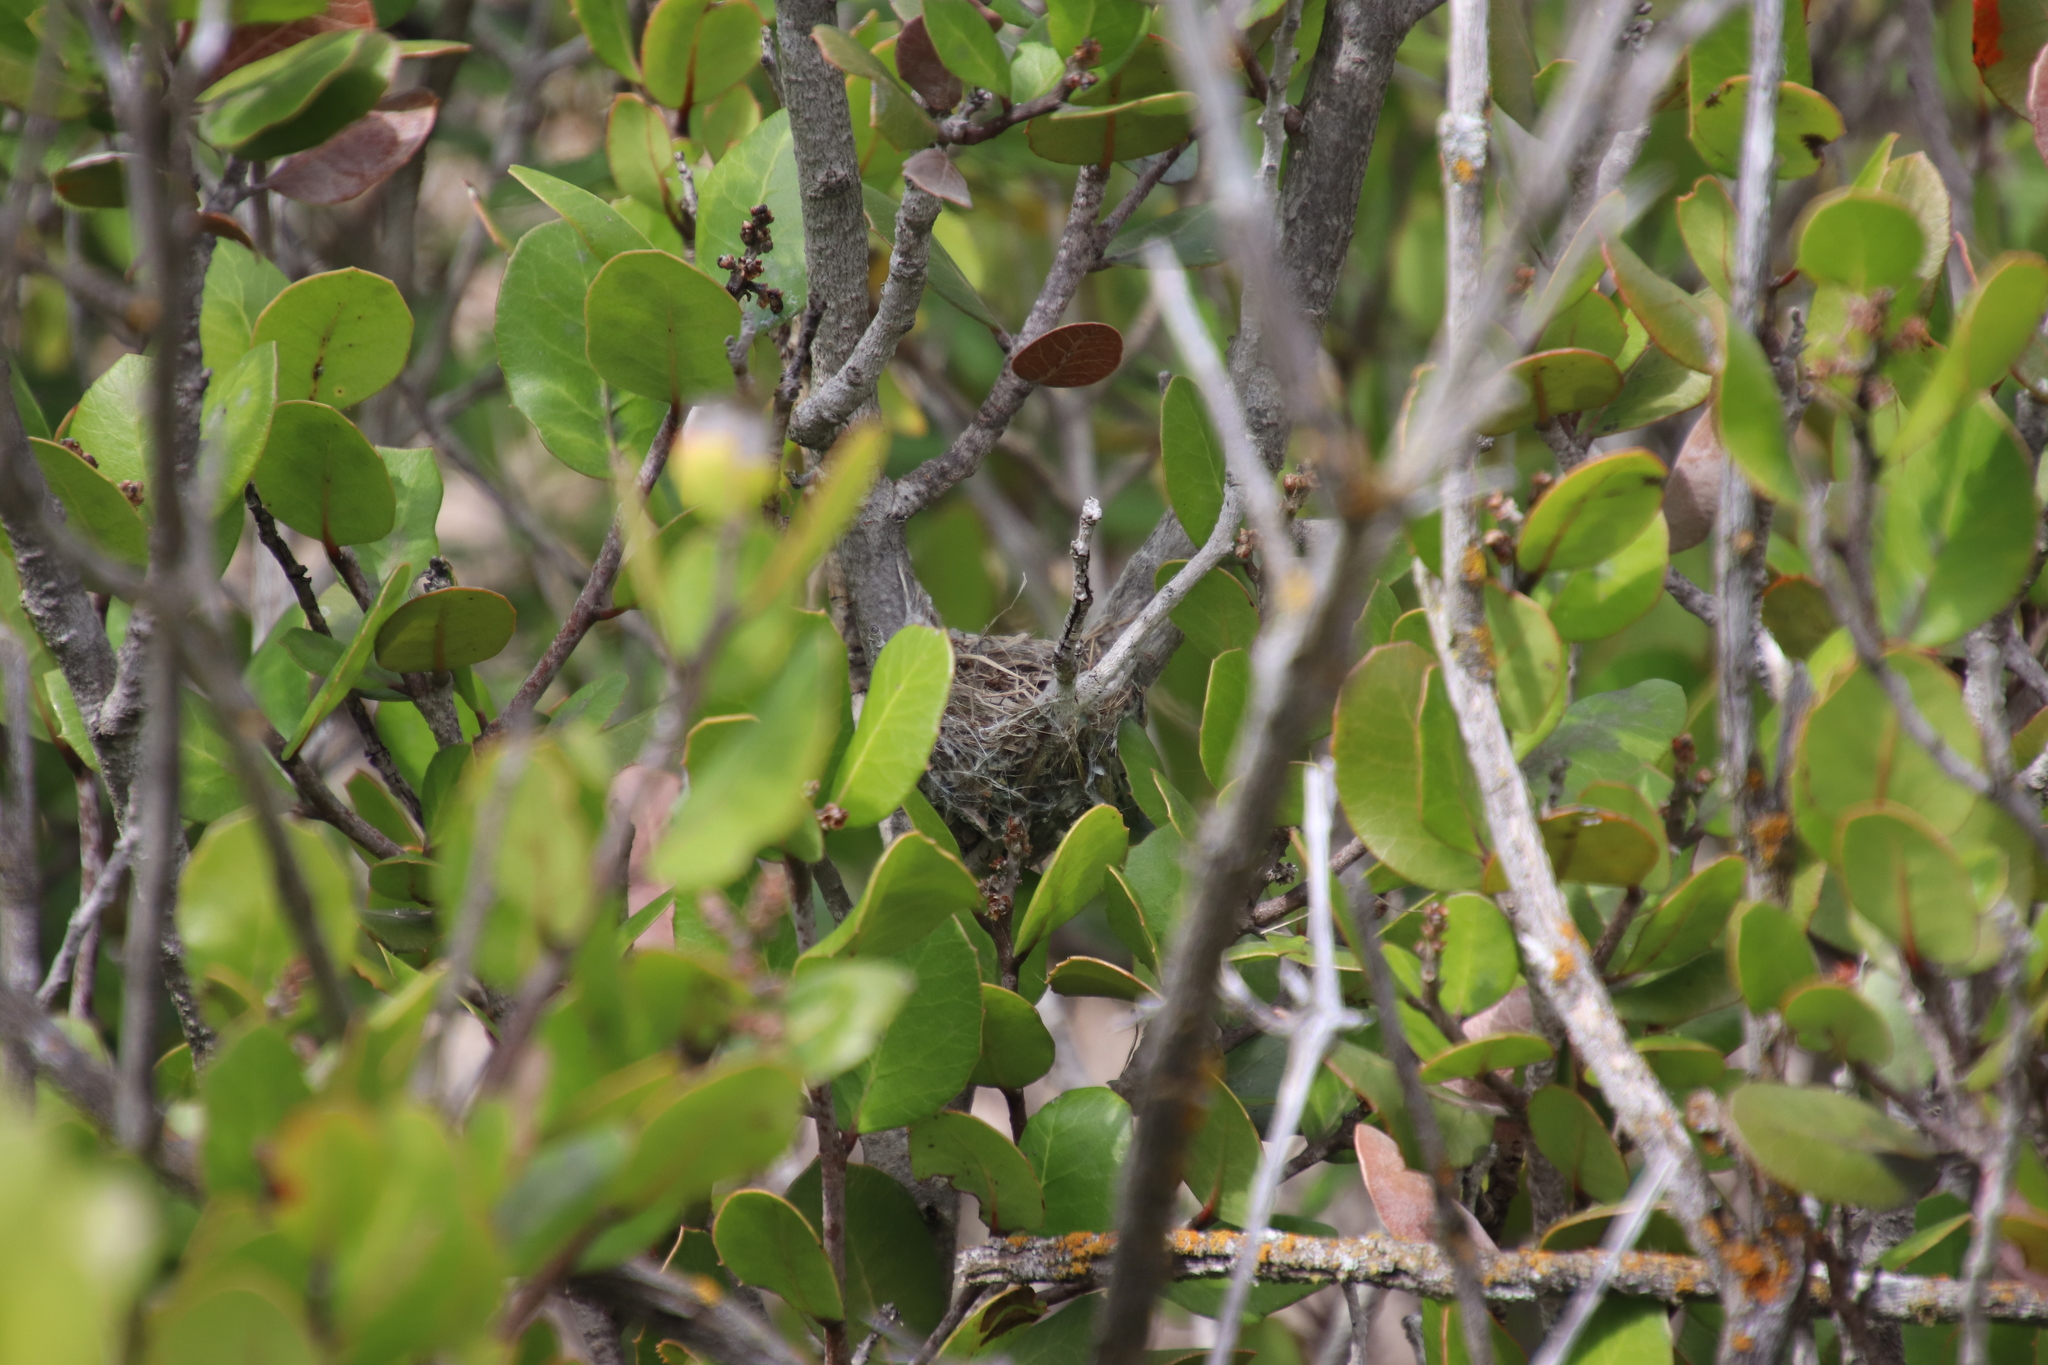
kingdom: Animalia
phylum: Chordata
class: Aves
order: Passeriformes
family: Polioptilidae
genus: Polioptila
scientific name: Polioptila caerulea
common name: Blue-gray gnatcatcher
